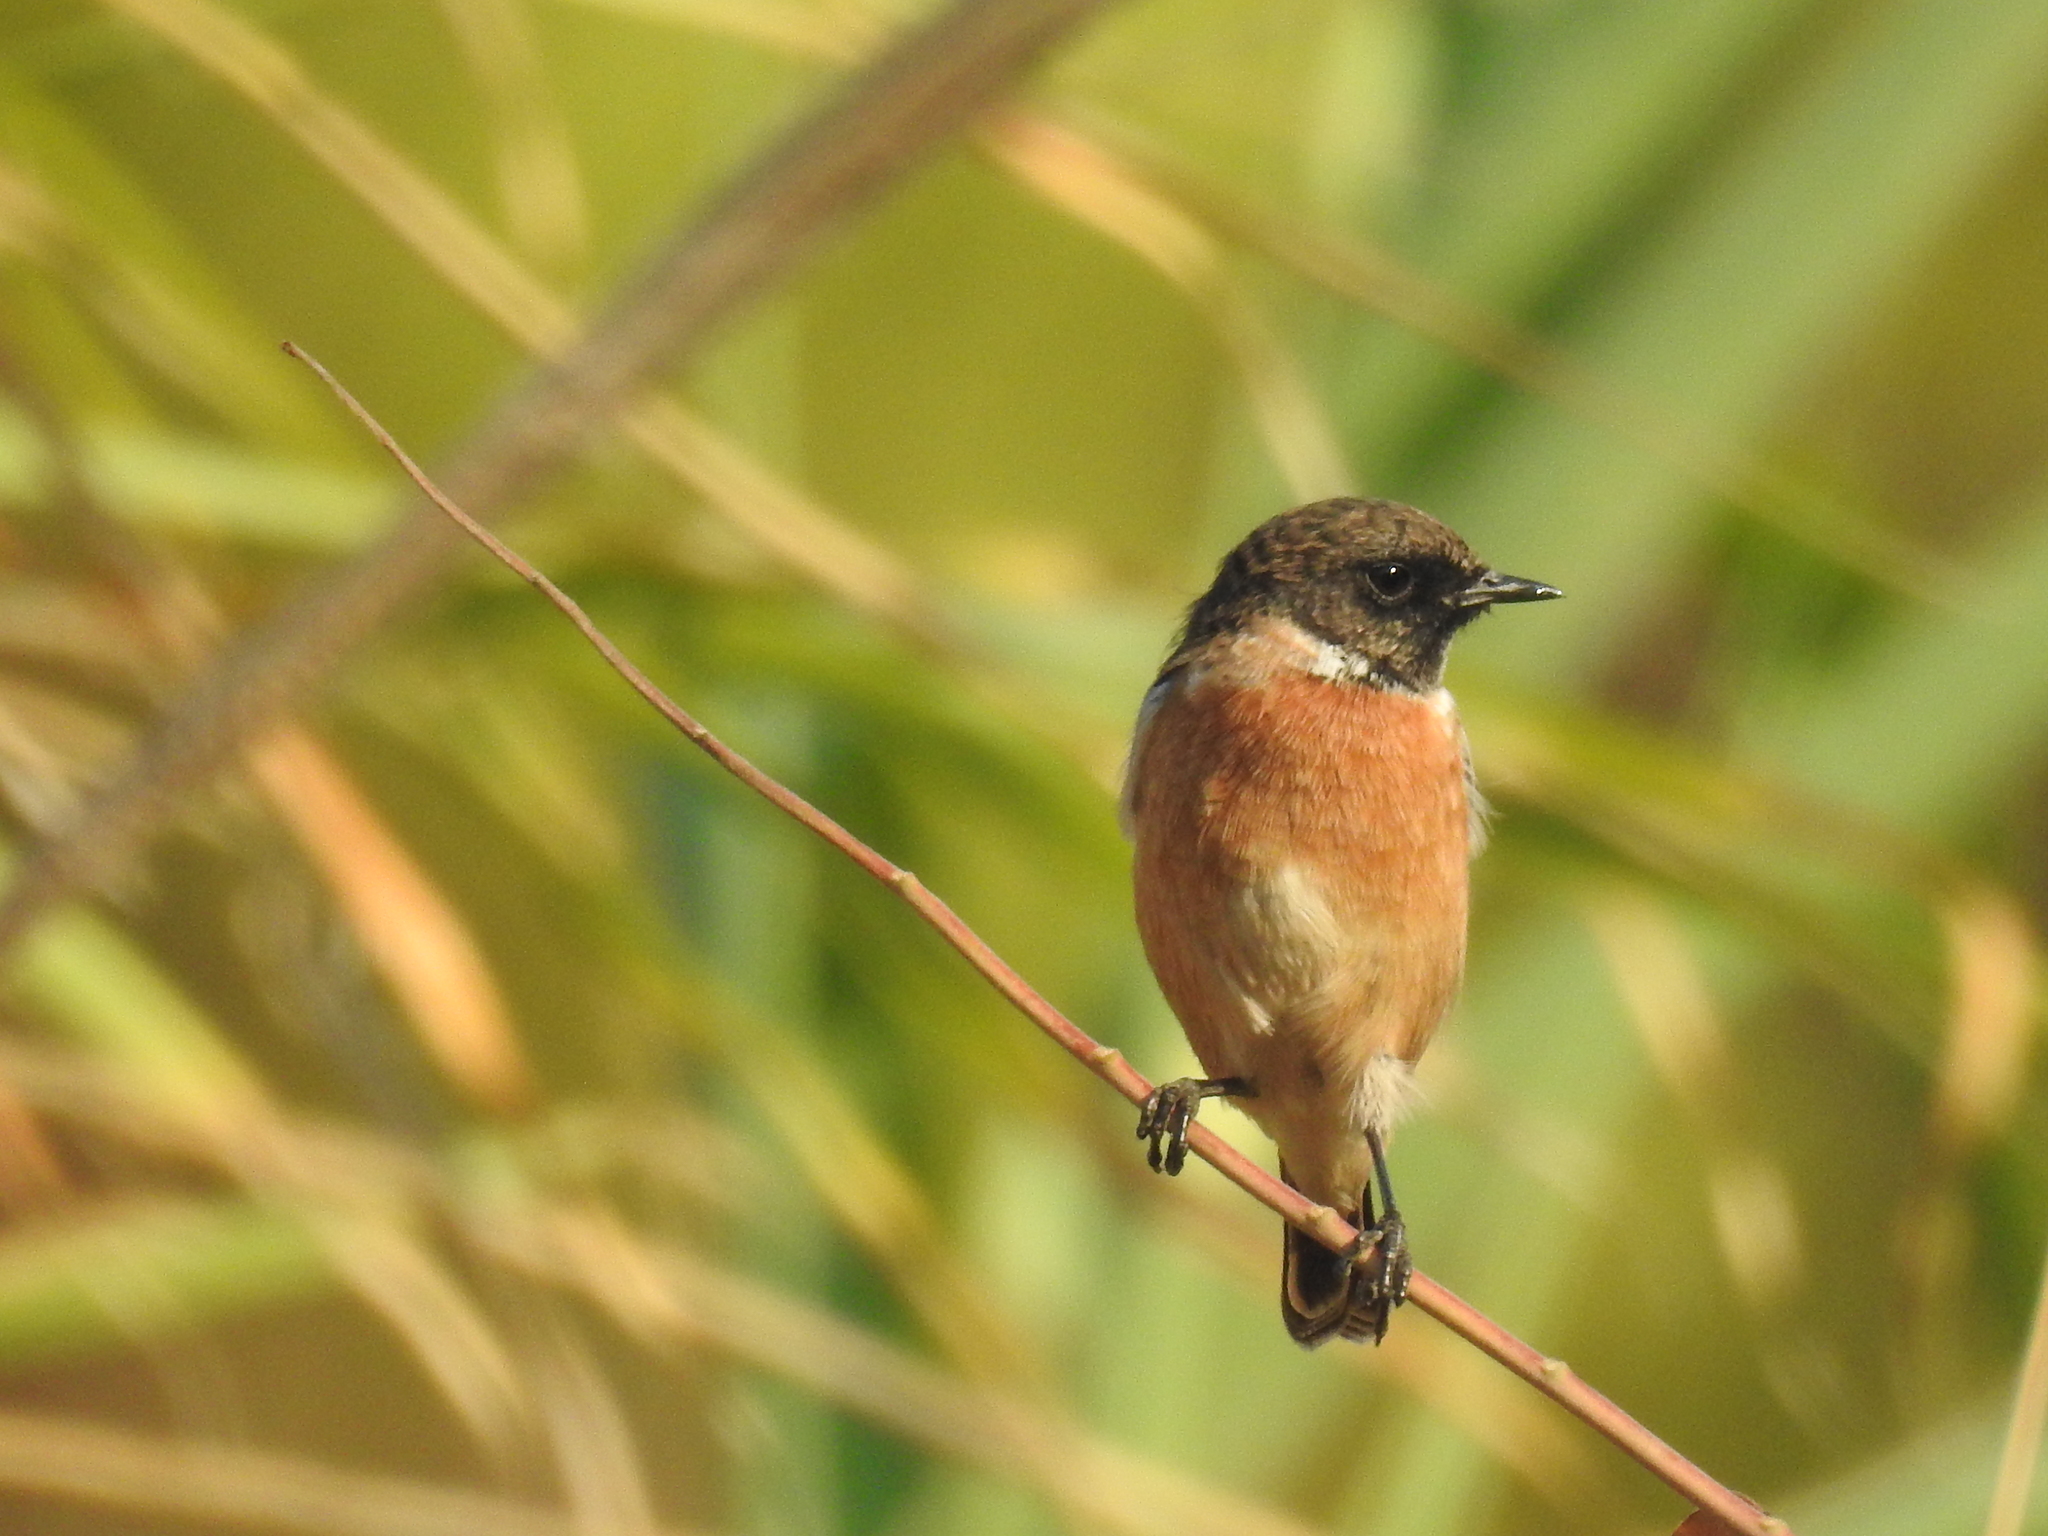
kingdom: Animalia
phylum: Chordata
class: Aves
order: Passeriformes
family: Muscicapidae
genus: Saxicola
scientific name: Saxicola rubicola
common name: European stonechat
